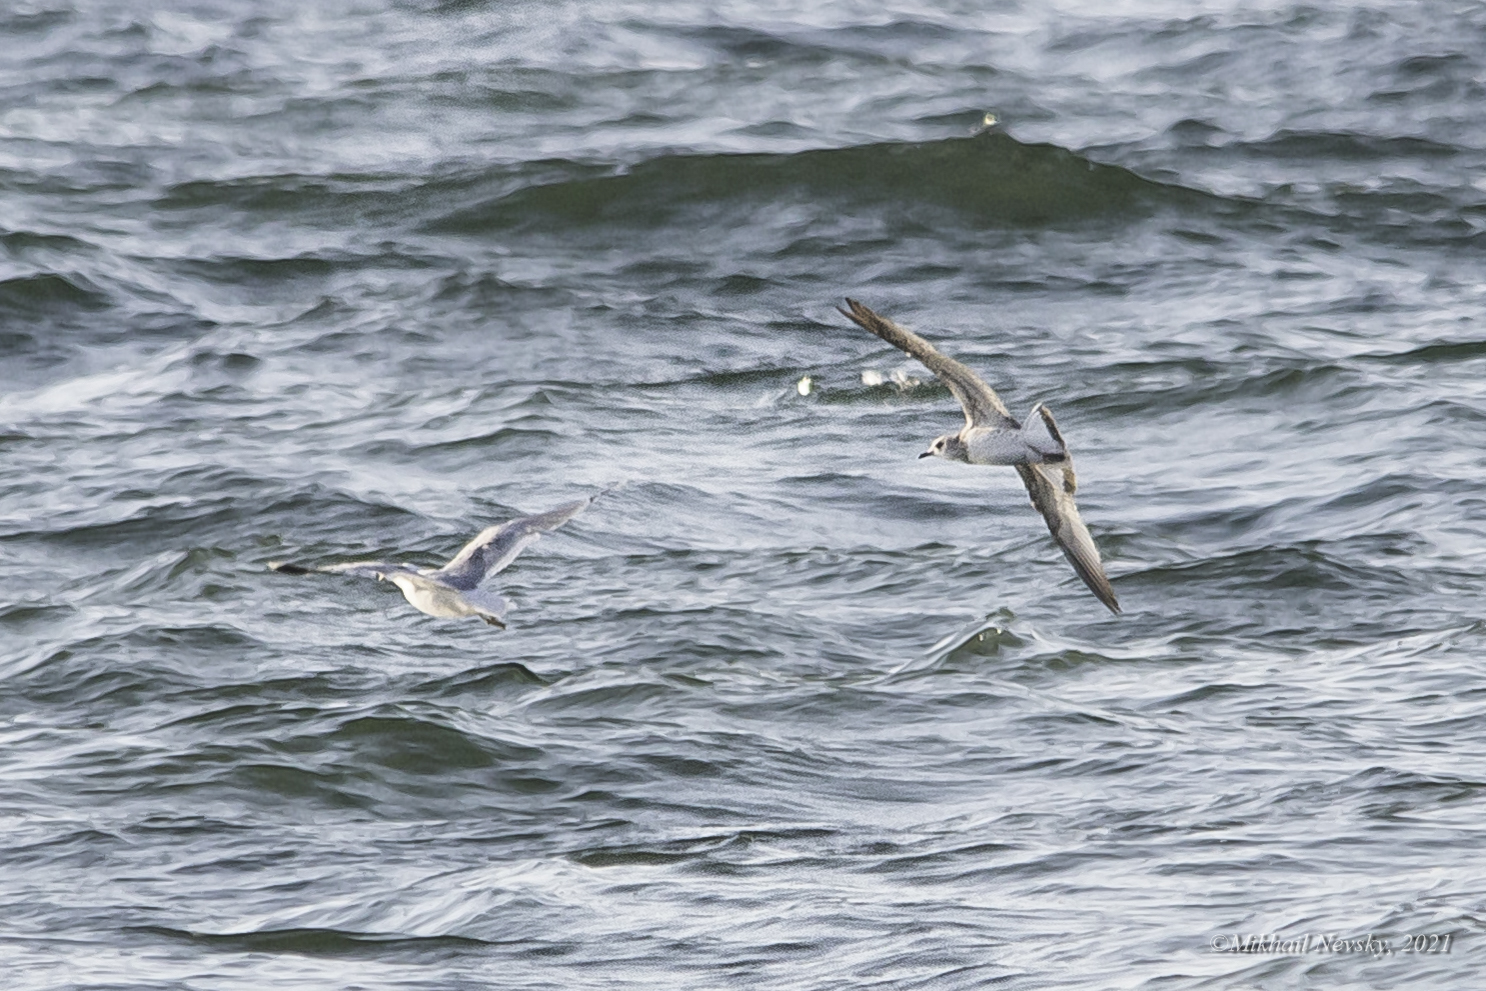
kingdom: Animalia
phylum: Chordata
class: Aves
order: Charadriiformes
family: Laridae
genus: Ichthyaetus
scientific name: Ichthyaetus melanocephalus
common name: Mediterranean gull
